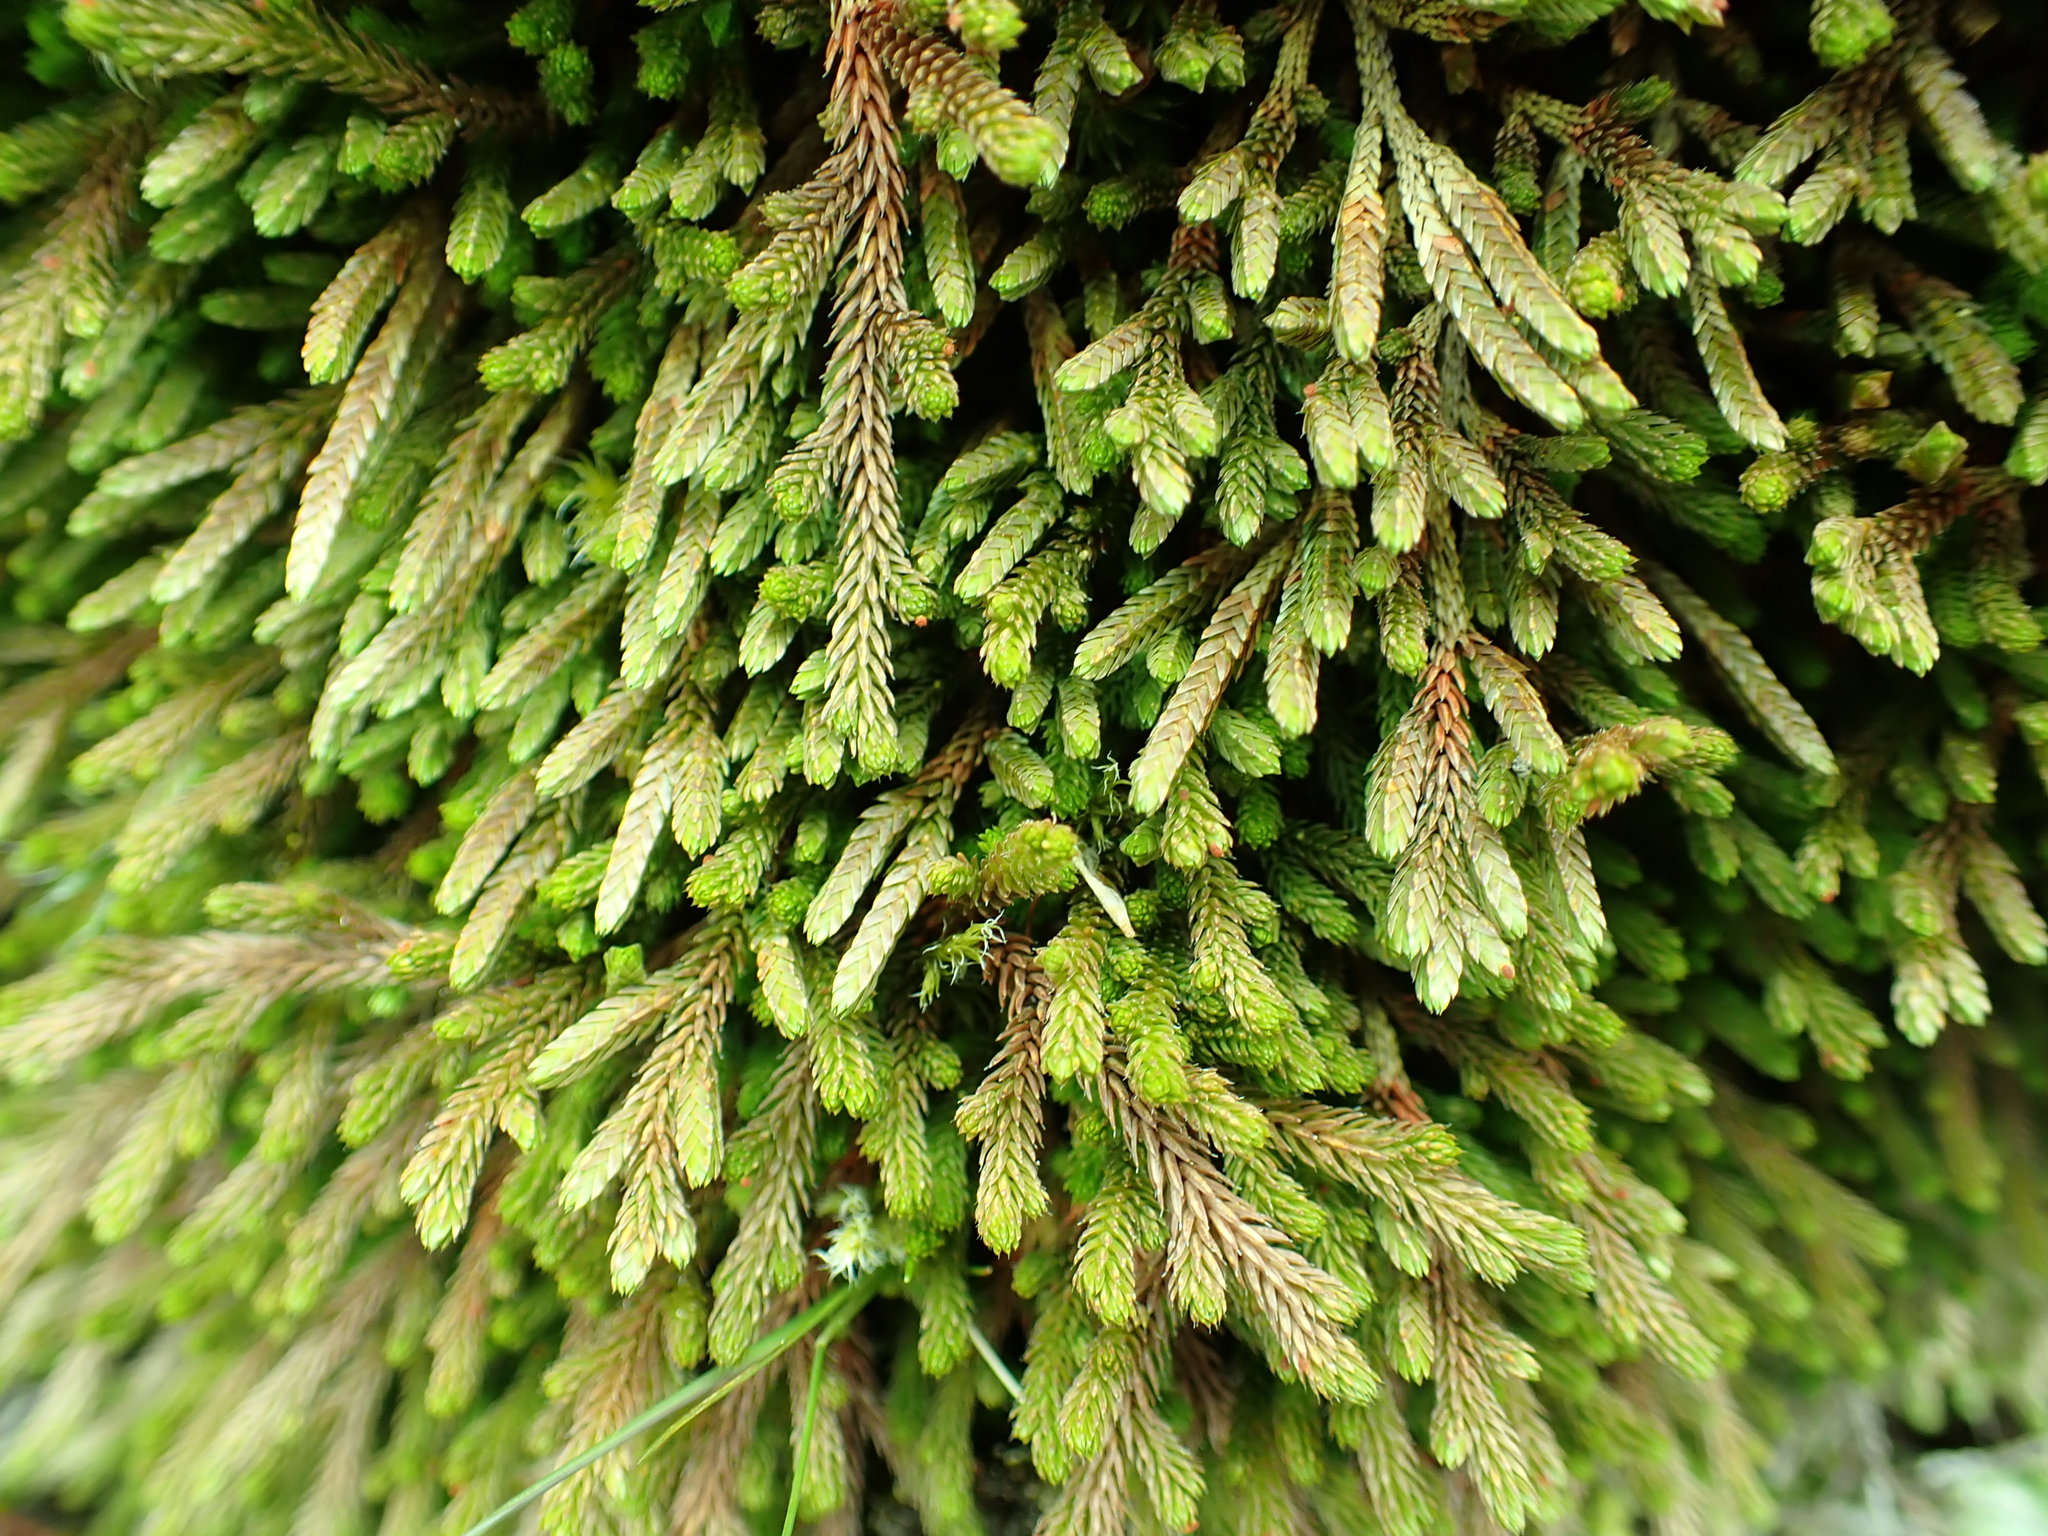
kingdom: Plantae
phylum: Tracheophyta
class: Lycopodiopsida
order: Selaginellales
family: Selaginellaceae
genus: Selaginella
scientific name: Selaginella wallacei
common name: Wallace's selaginella
